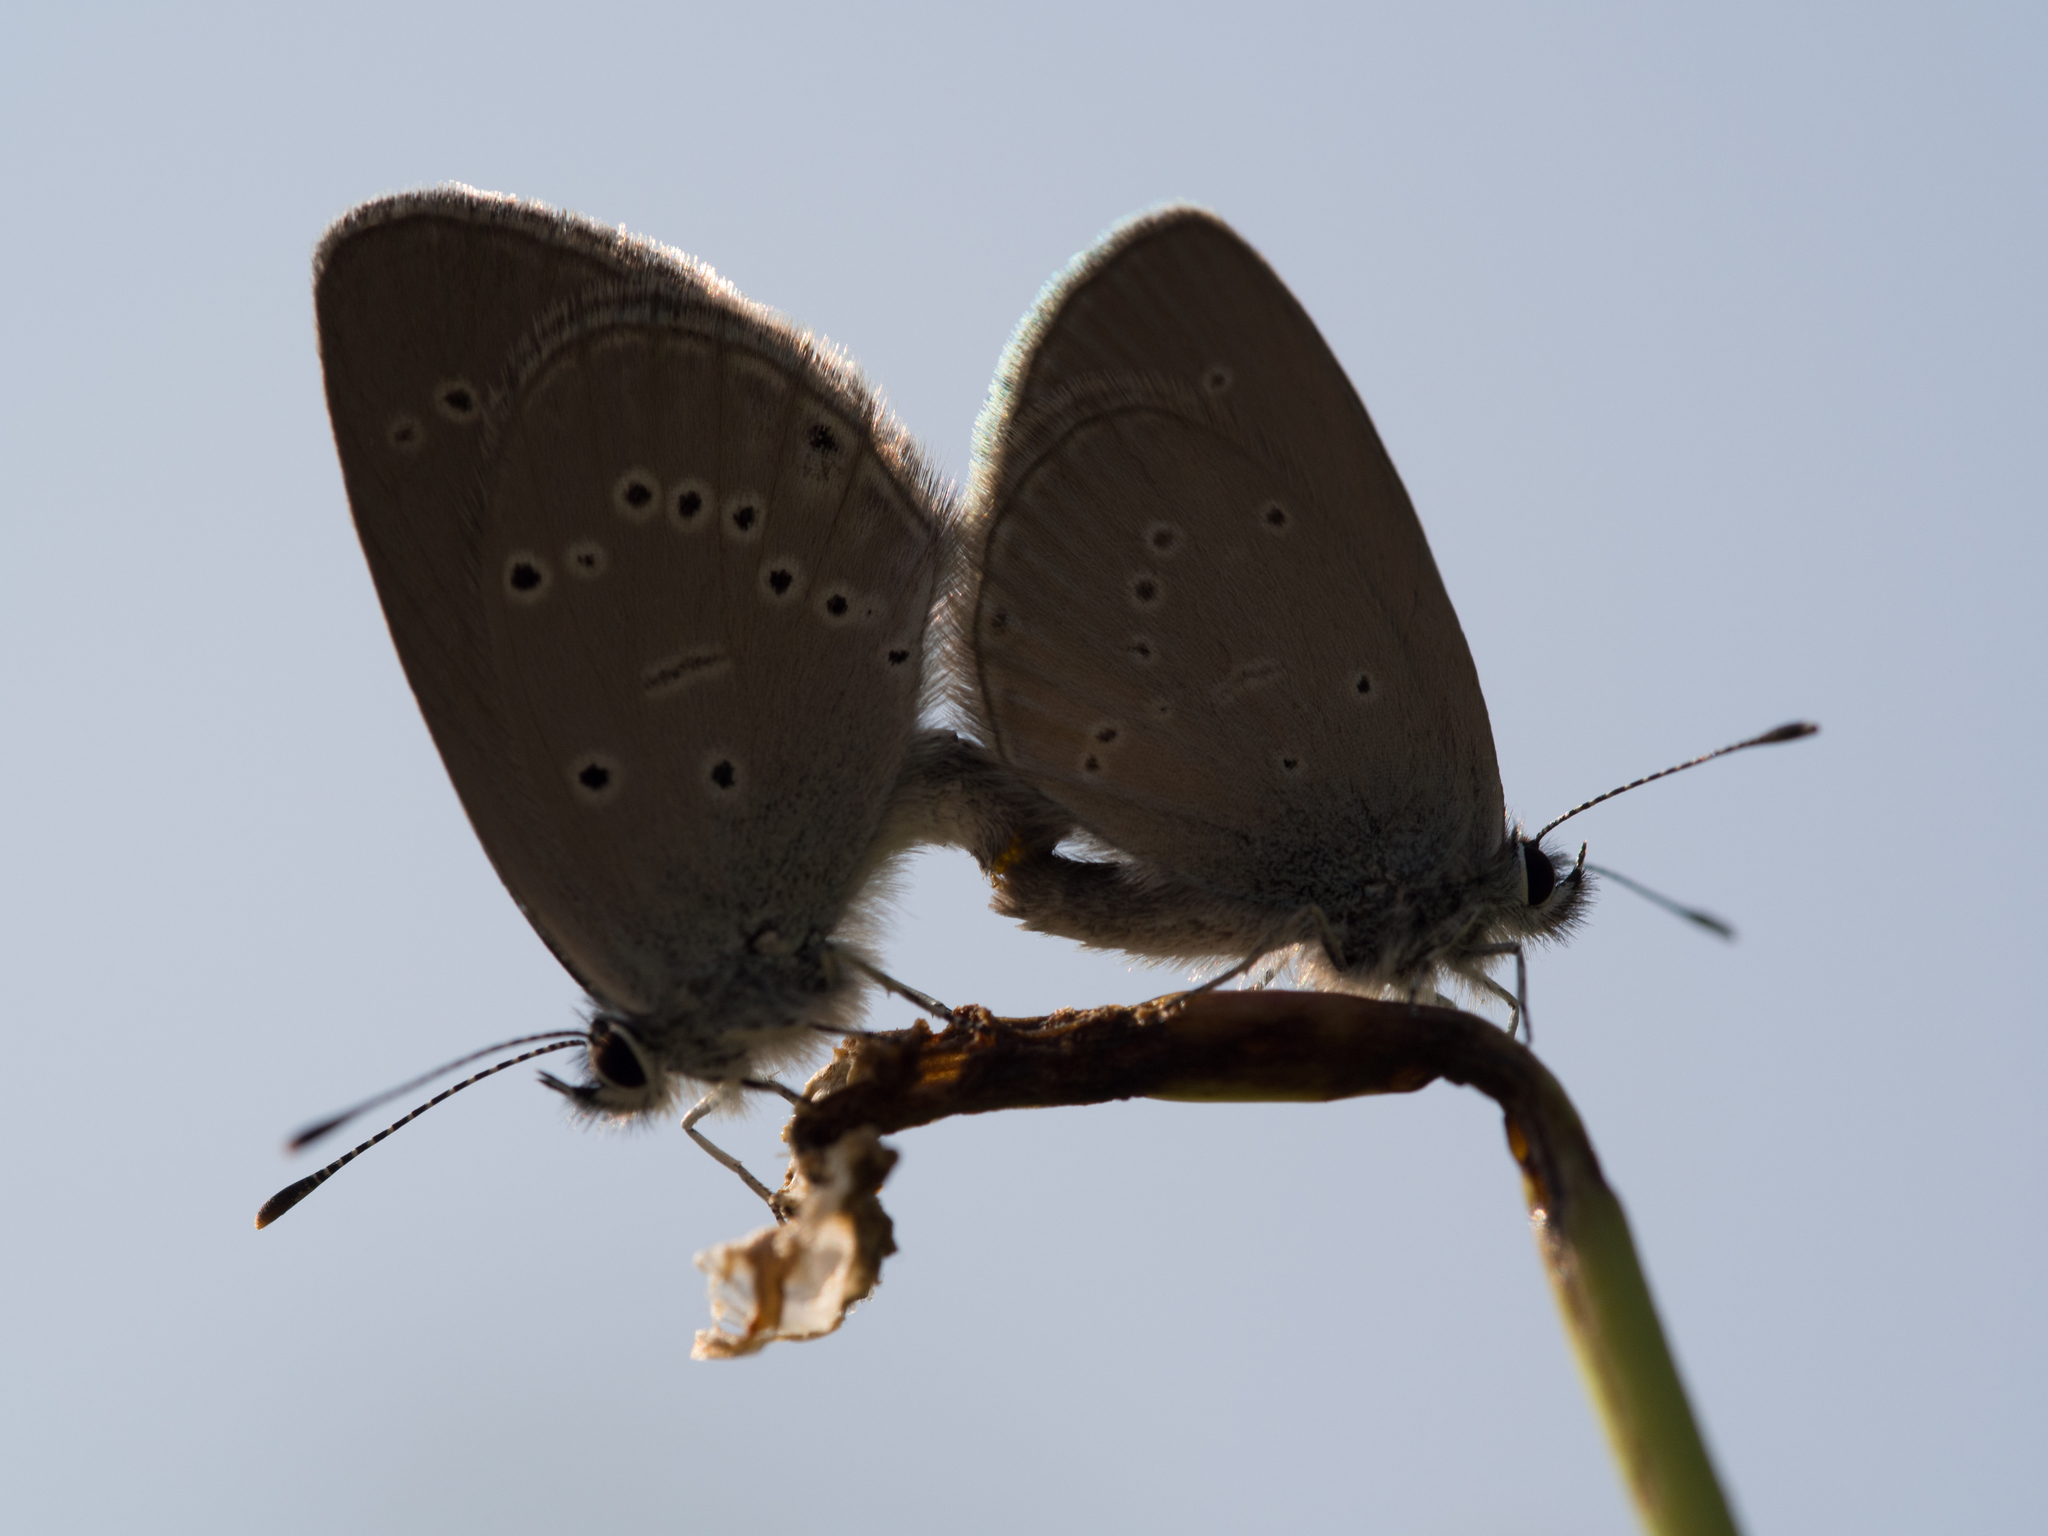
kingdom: Animalia
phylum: Arthropoda
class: Insecta
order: Lepidoptera
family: Lycaenidae
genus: Cupido
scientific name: Cupido minimus
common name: Small blue
